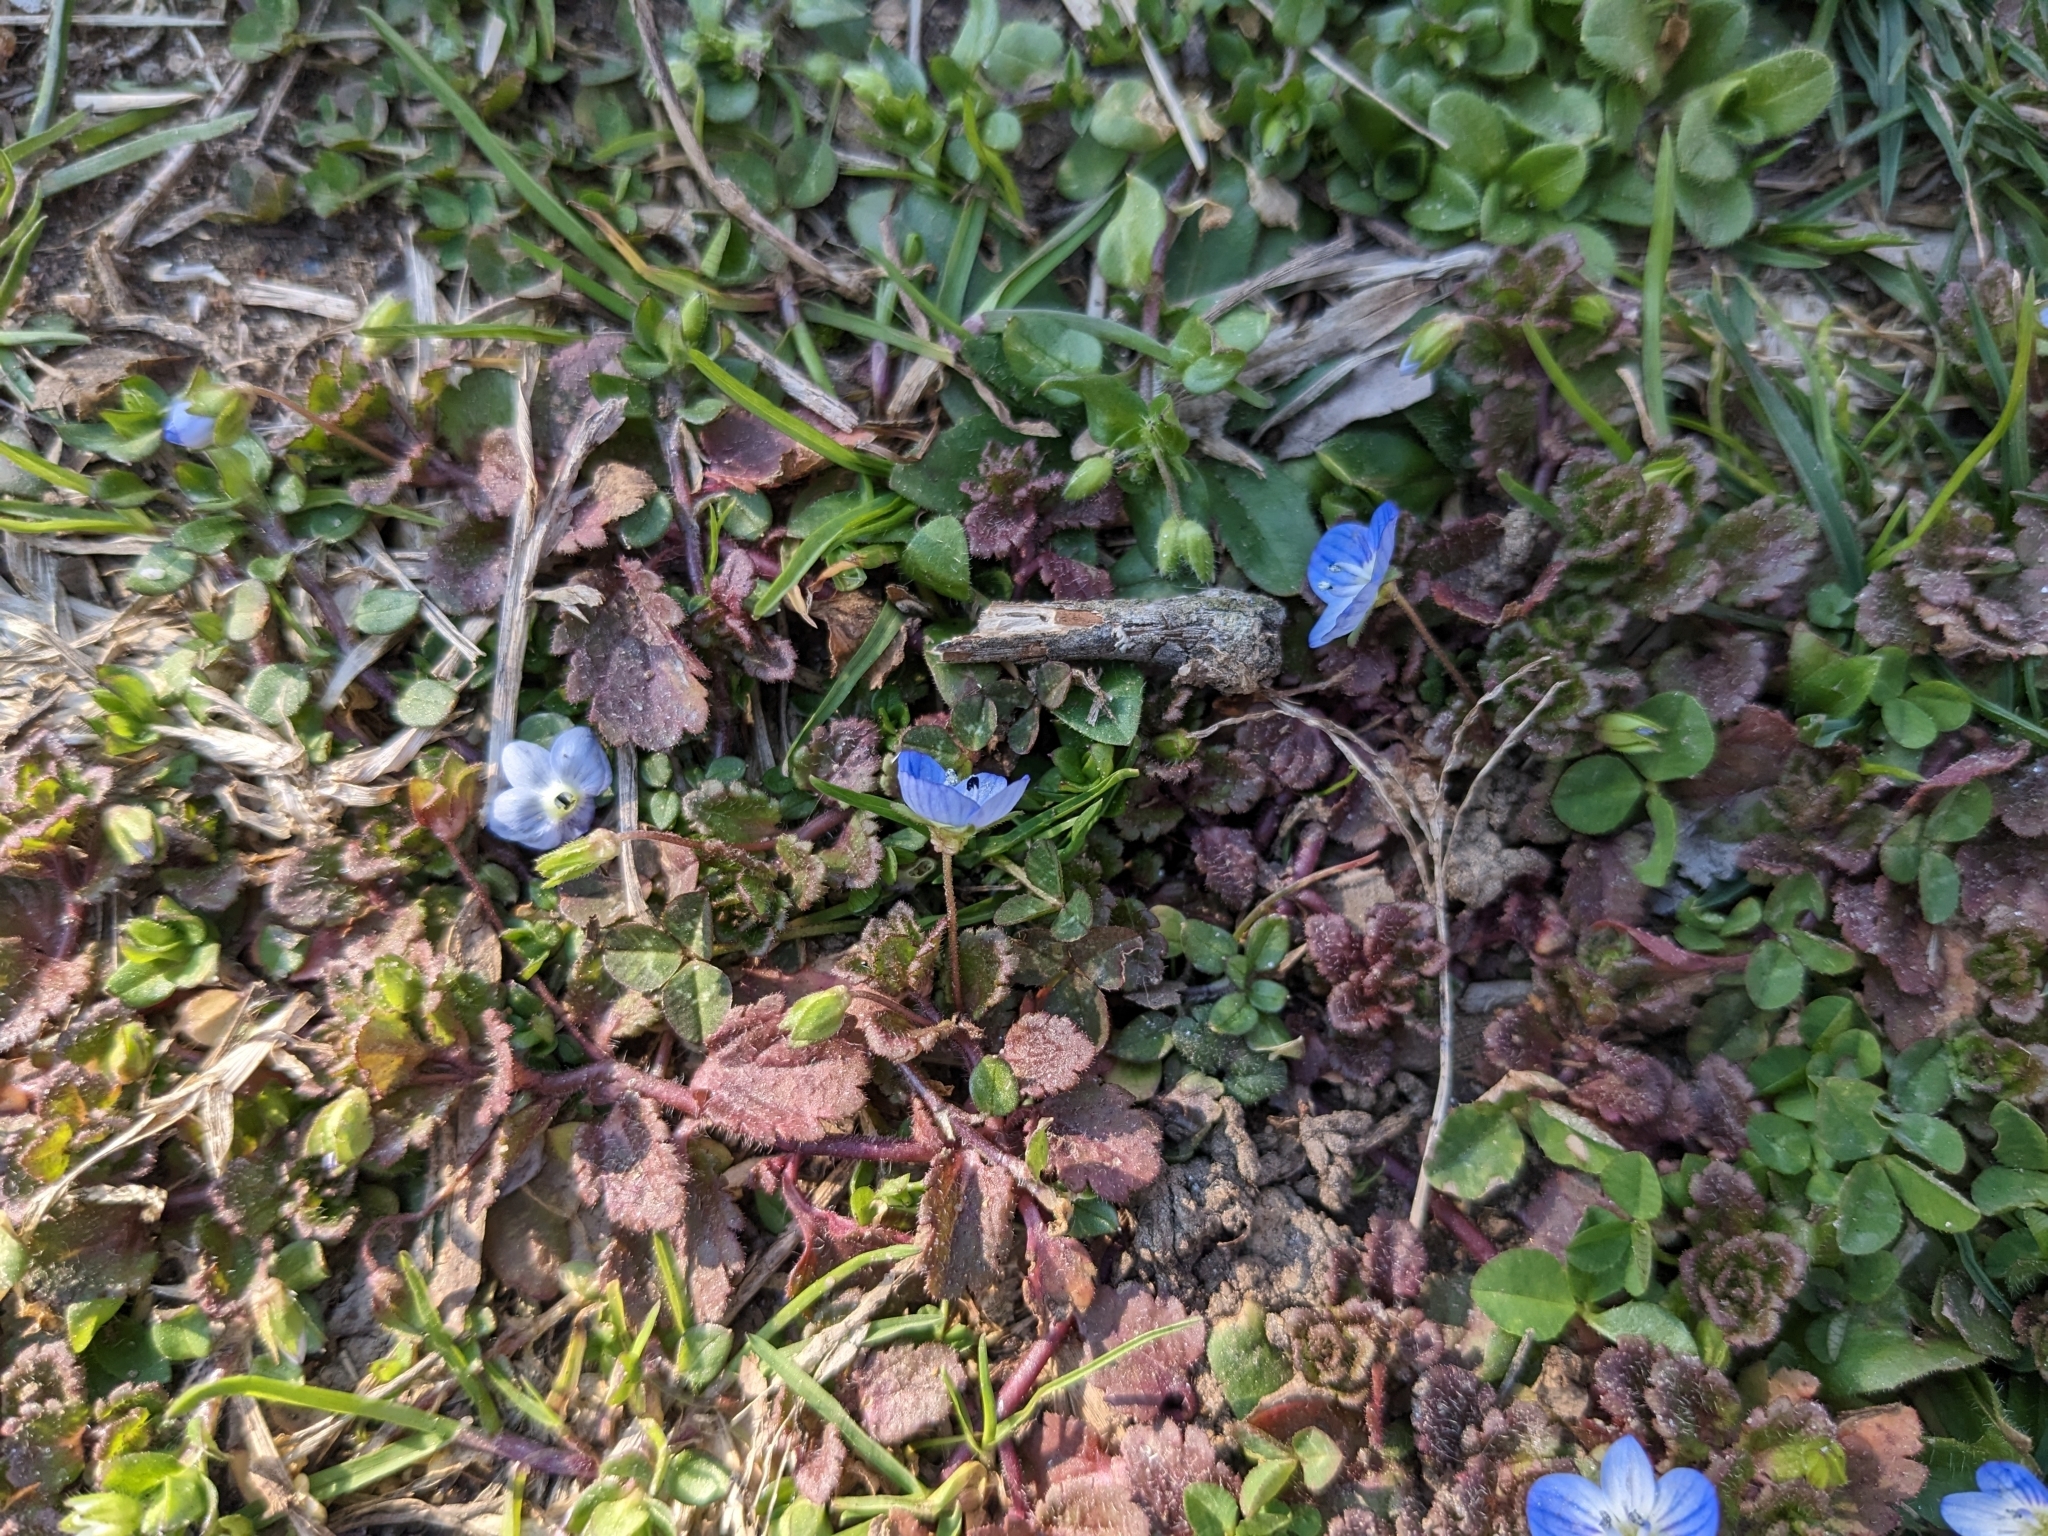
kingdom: Plantae
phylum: Tracheophyta
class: Magnoliopsida
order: Lamiales
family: Plantaginaceae
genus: Veronica
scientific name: Veronica persica
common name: Common field-speedwell
